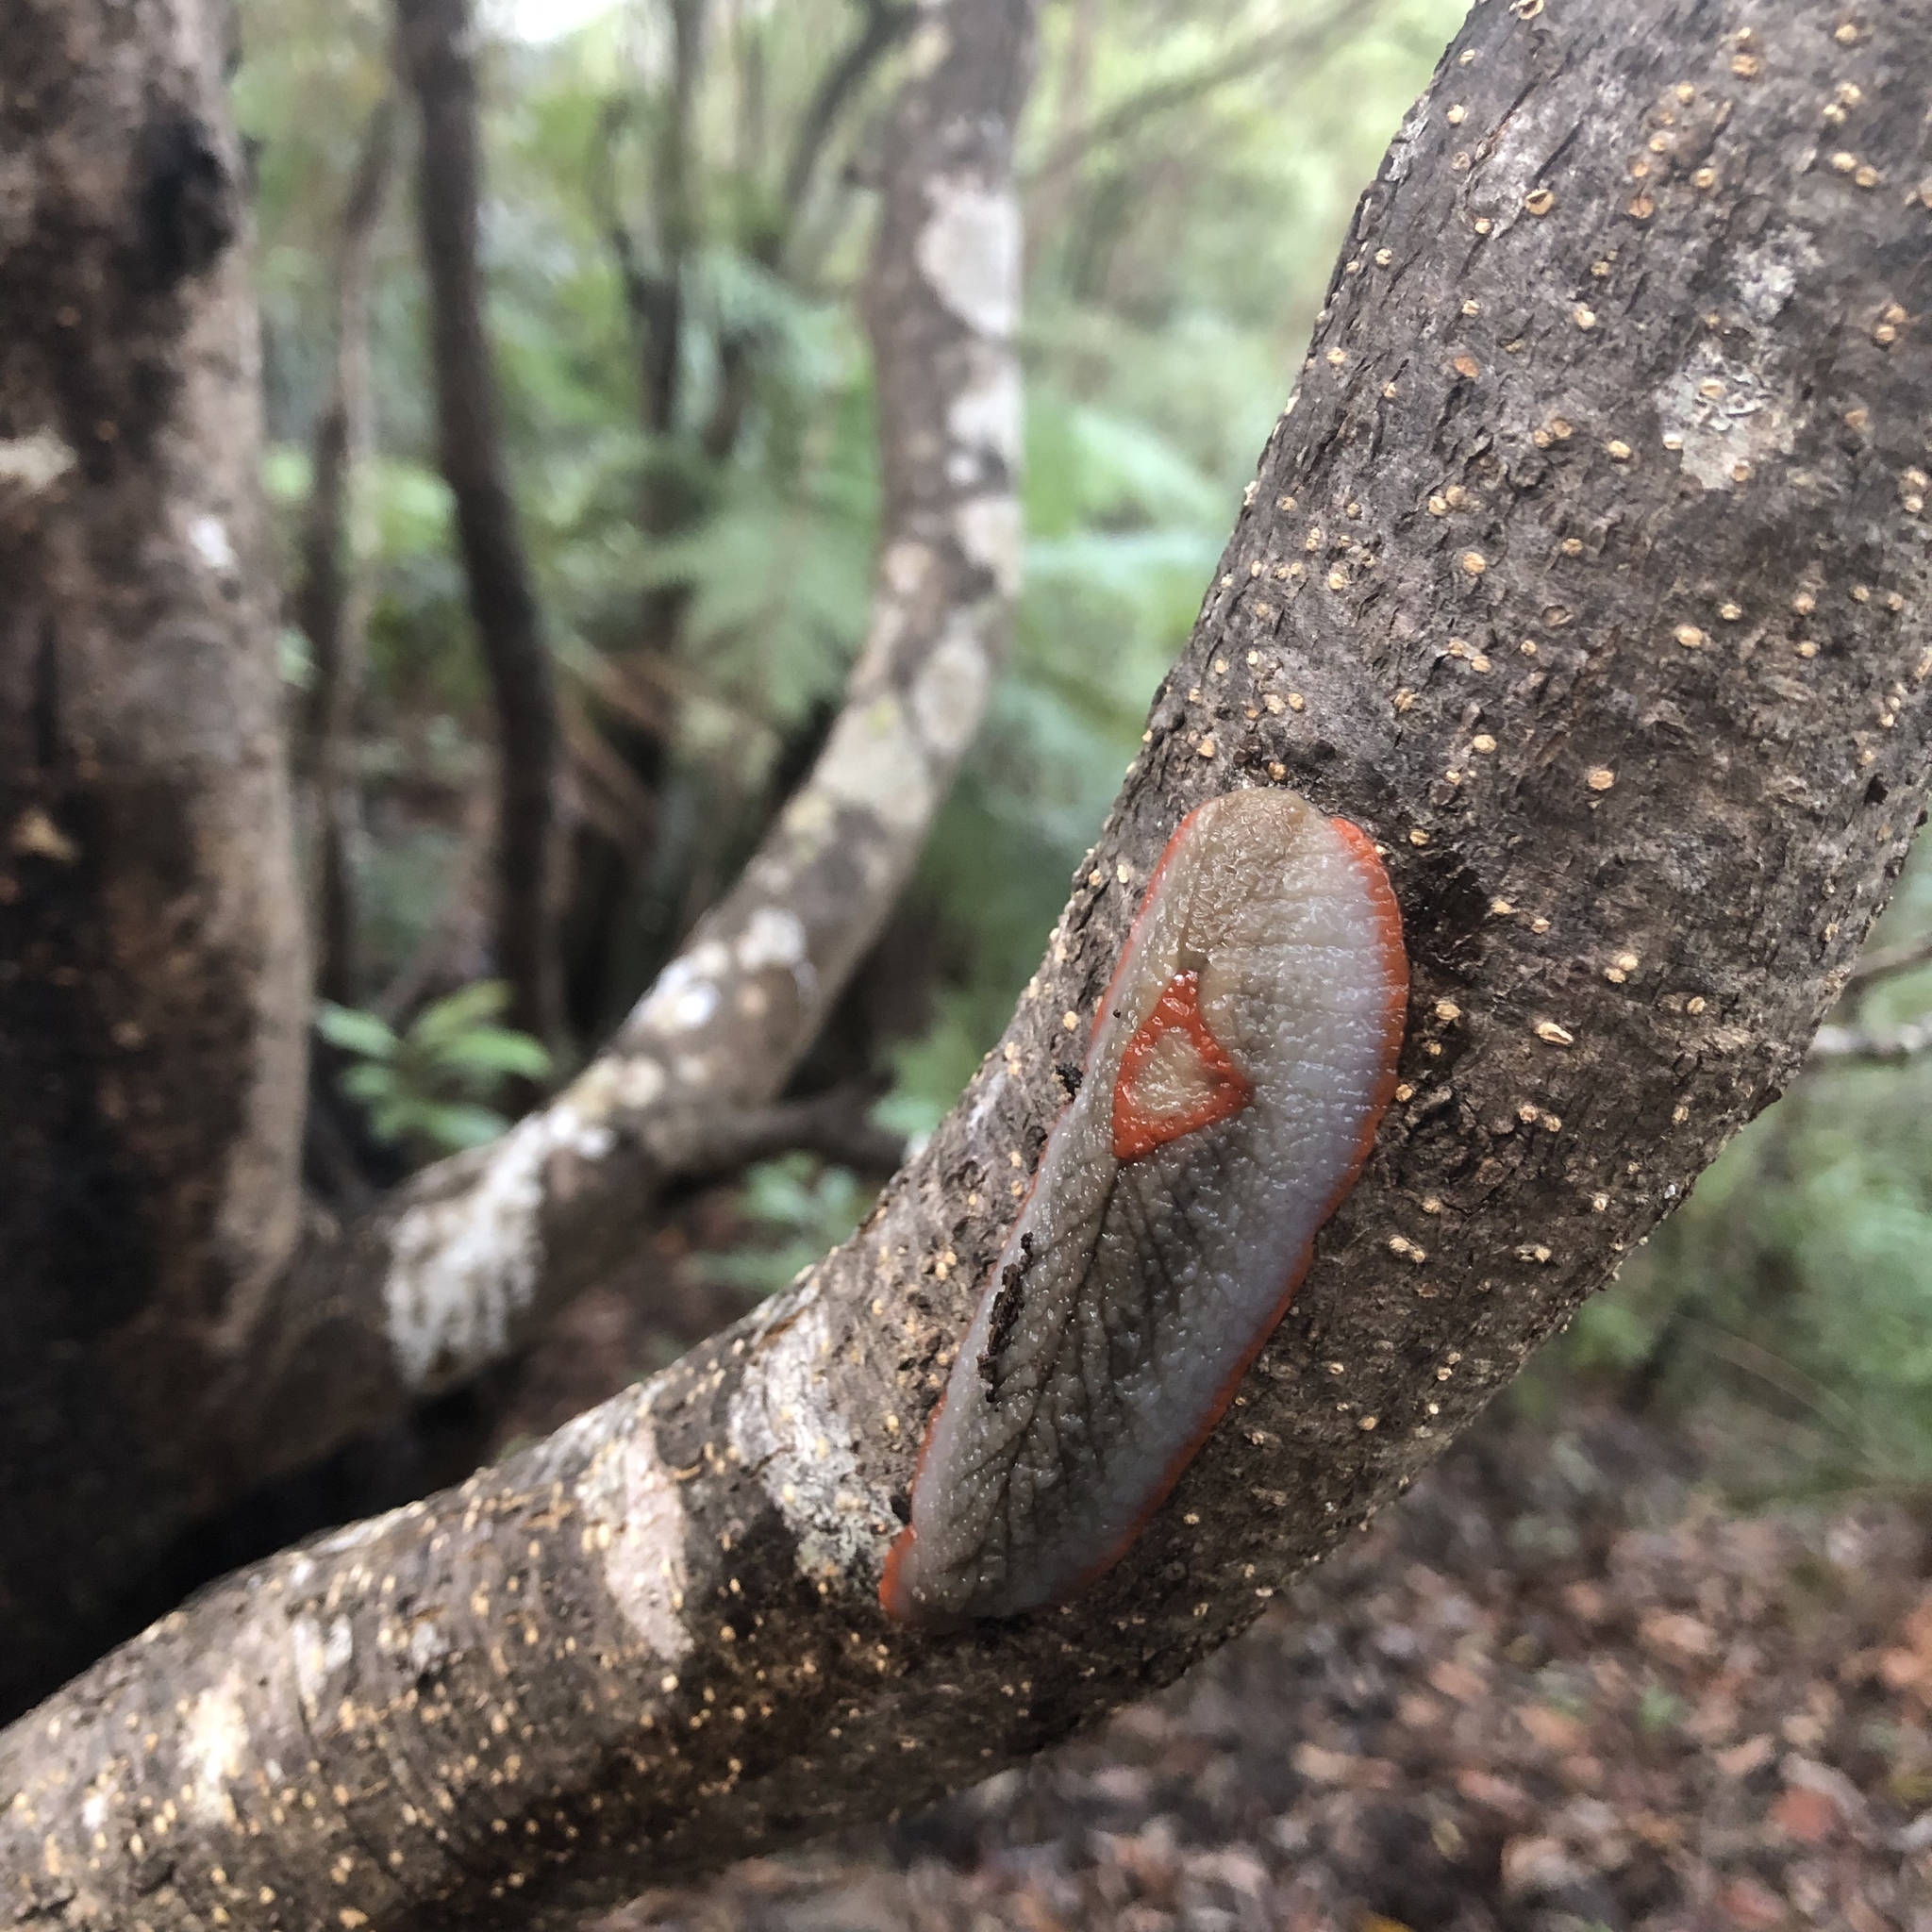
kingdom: Animalia
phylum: Mollusca
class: Gastropoda
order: Stylommatophora
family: Athoracophoridae
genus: Triboniophorus
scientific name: Triboniophorus graeffei
